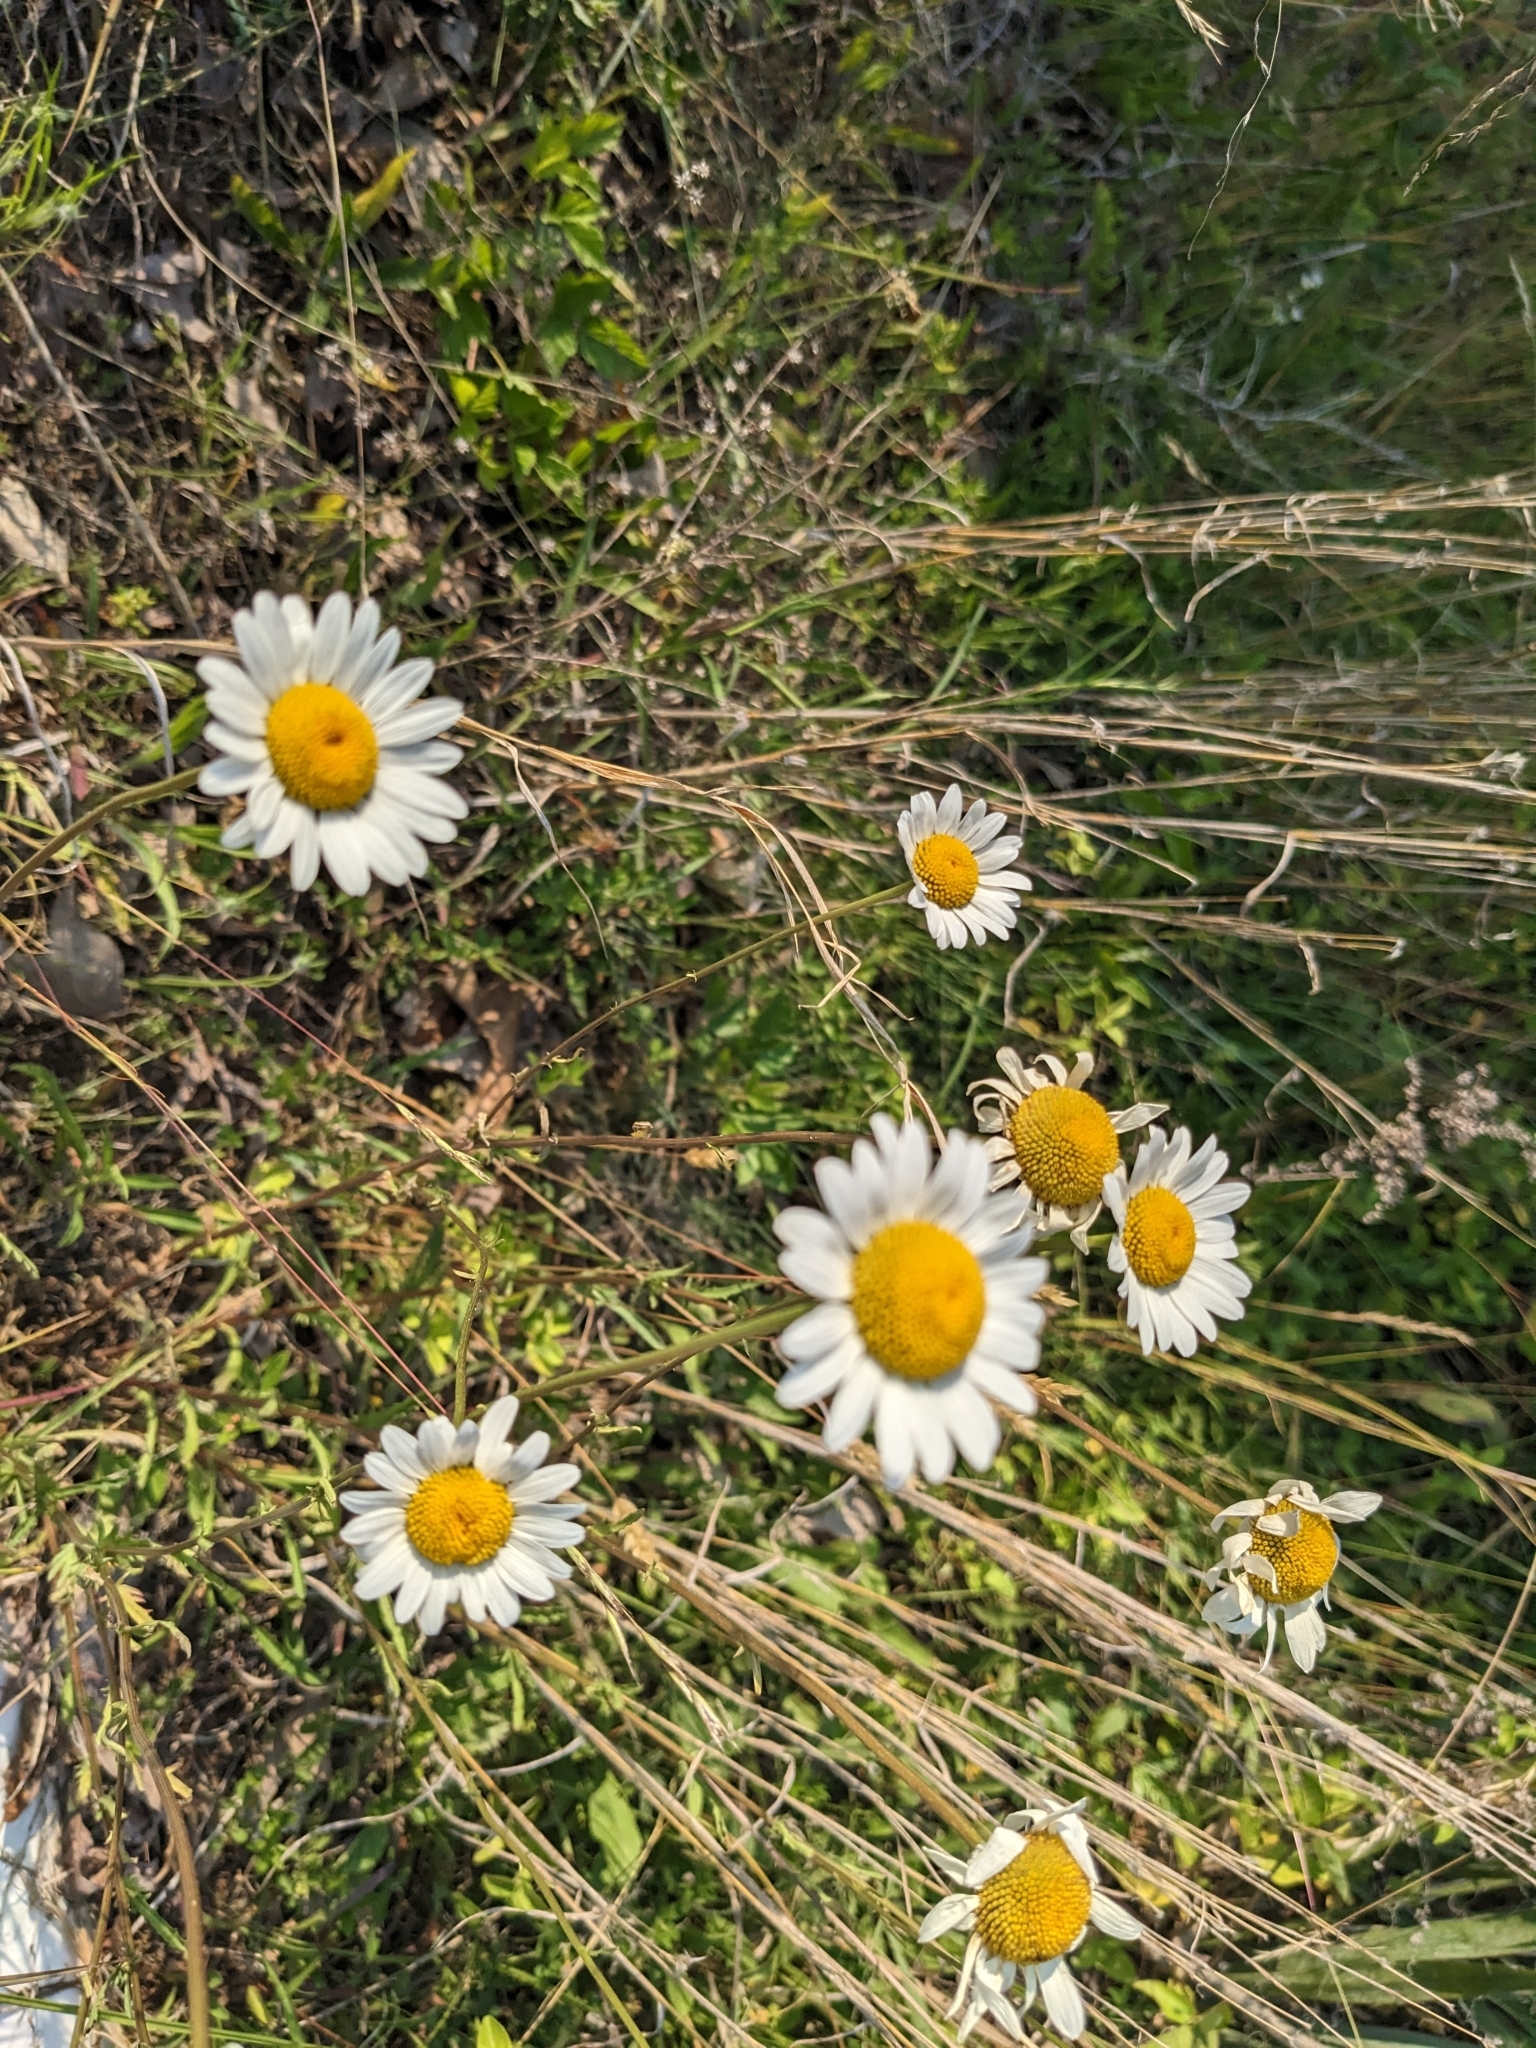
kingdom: Plantae
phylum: Tracheophyta
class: Magnoliopsida
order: Asterales
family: Asteraceae
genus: Leucanthemum
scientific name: Leucanthemum vulgare
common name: Oxeye daisy
